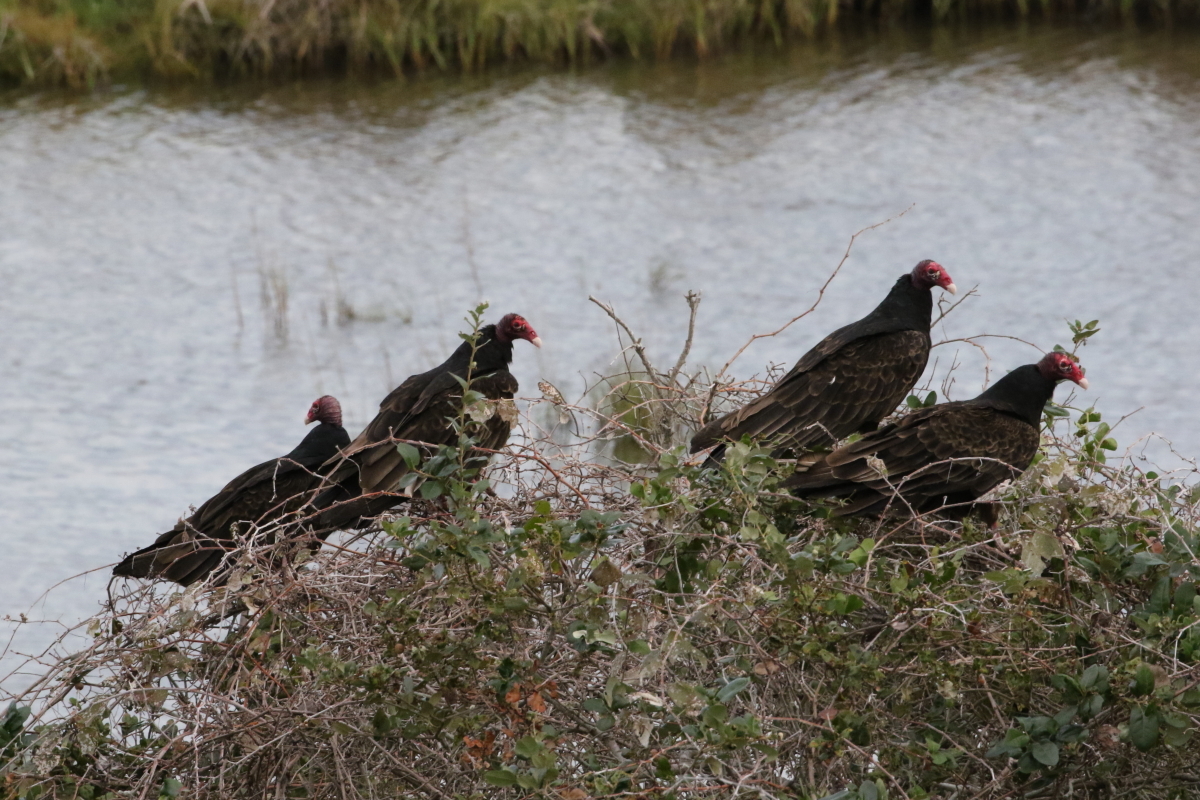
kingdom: Animalia
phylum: Chordata
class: Aves
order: Accipitriformes
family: Cathartidae
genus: Cathartes
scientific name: Cathartes aura
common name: Turkey vulture
